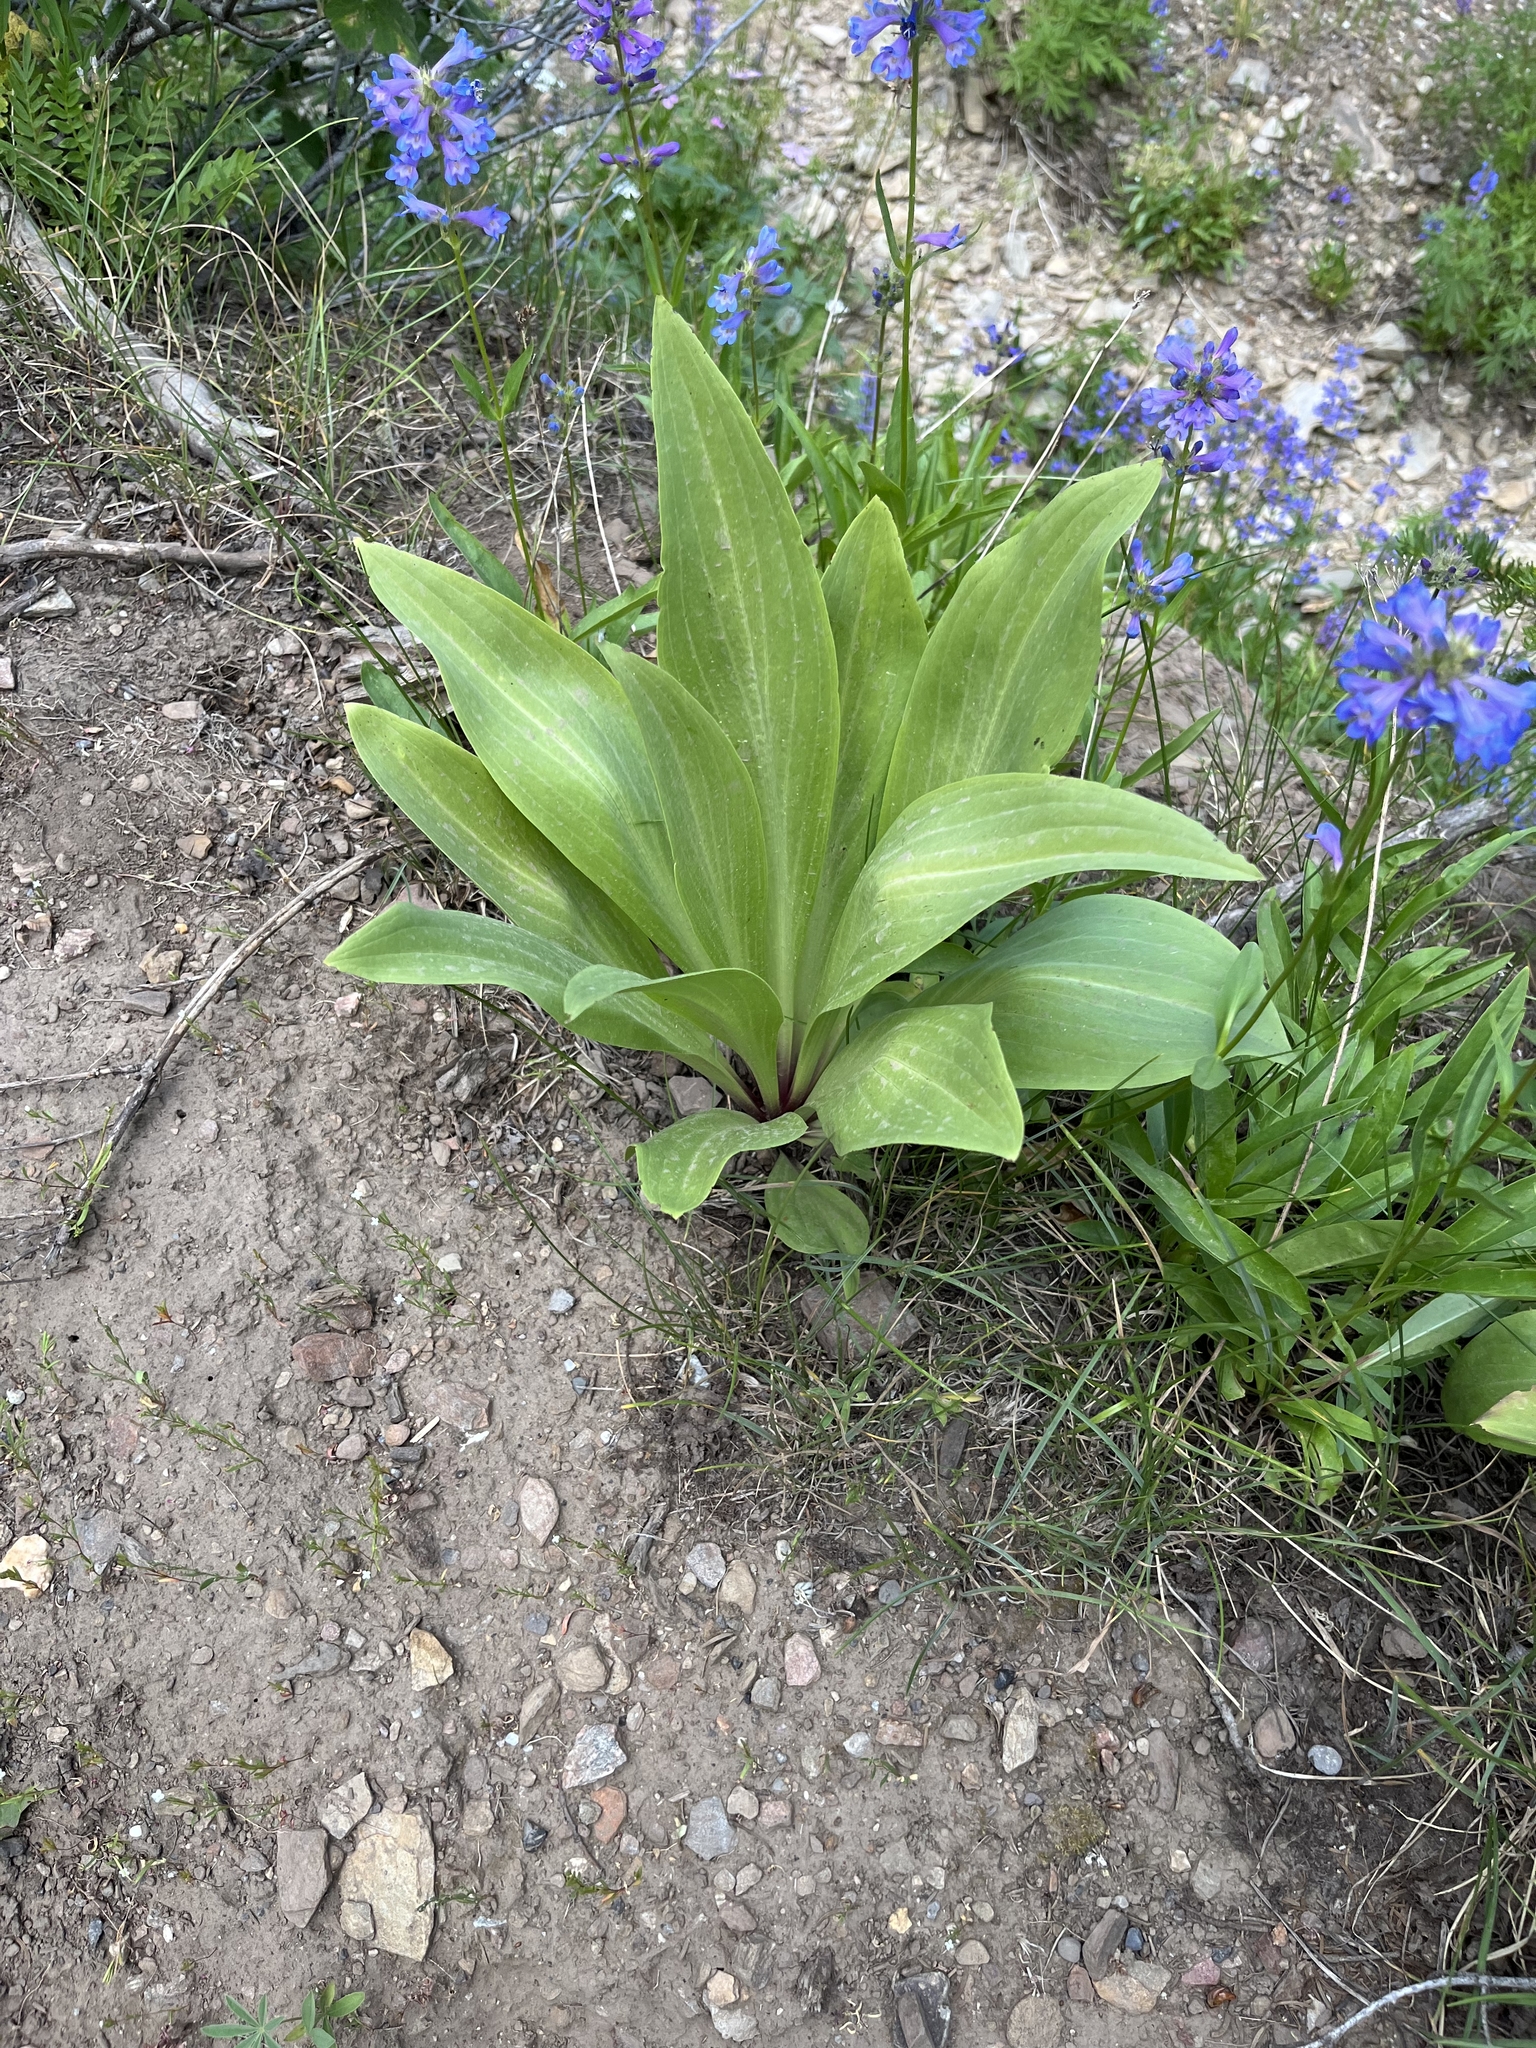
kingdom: Plantae
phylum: Tracheophyta
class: Magnoliopsida
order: Gentianales
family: Gentianaceae
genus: Frasera
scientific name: Frasera speciosa
